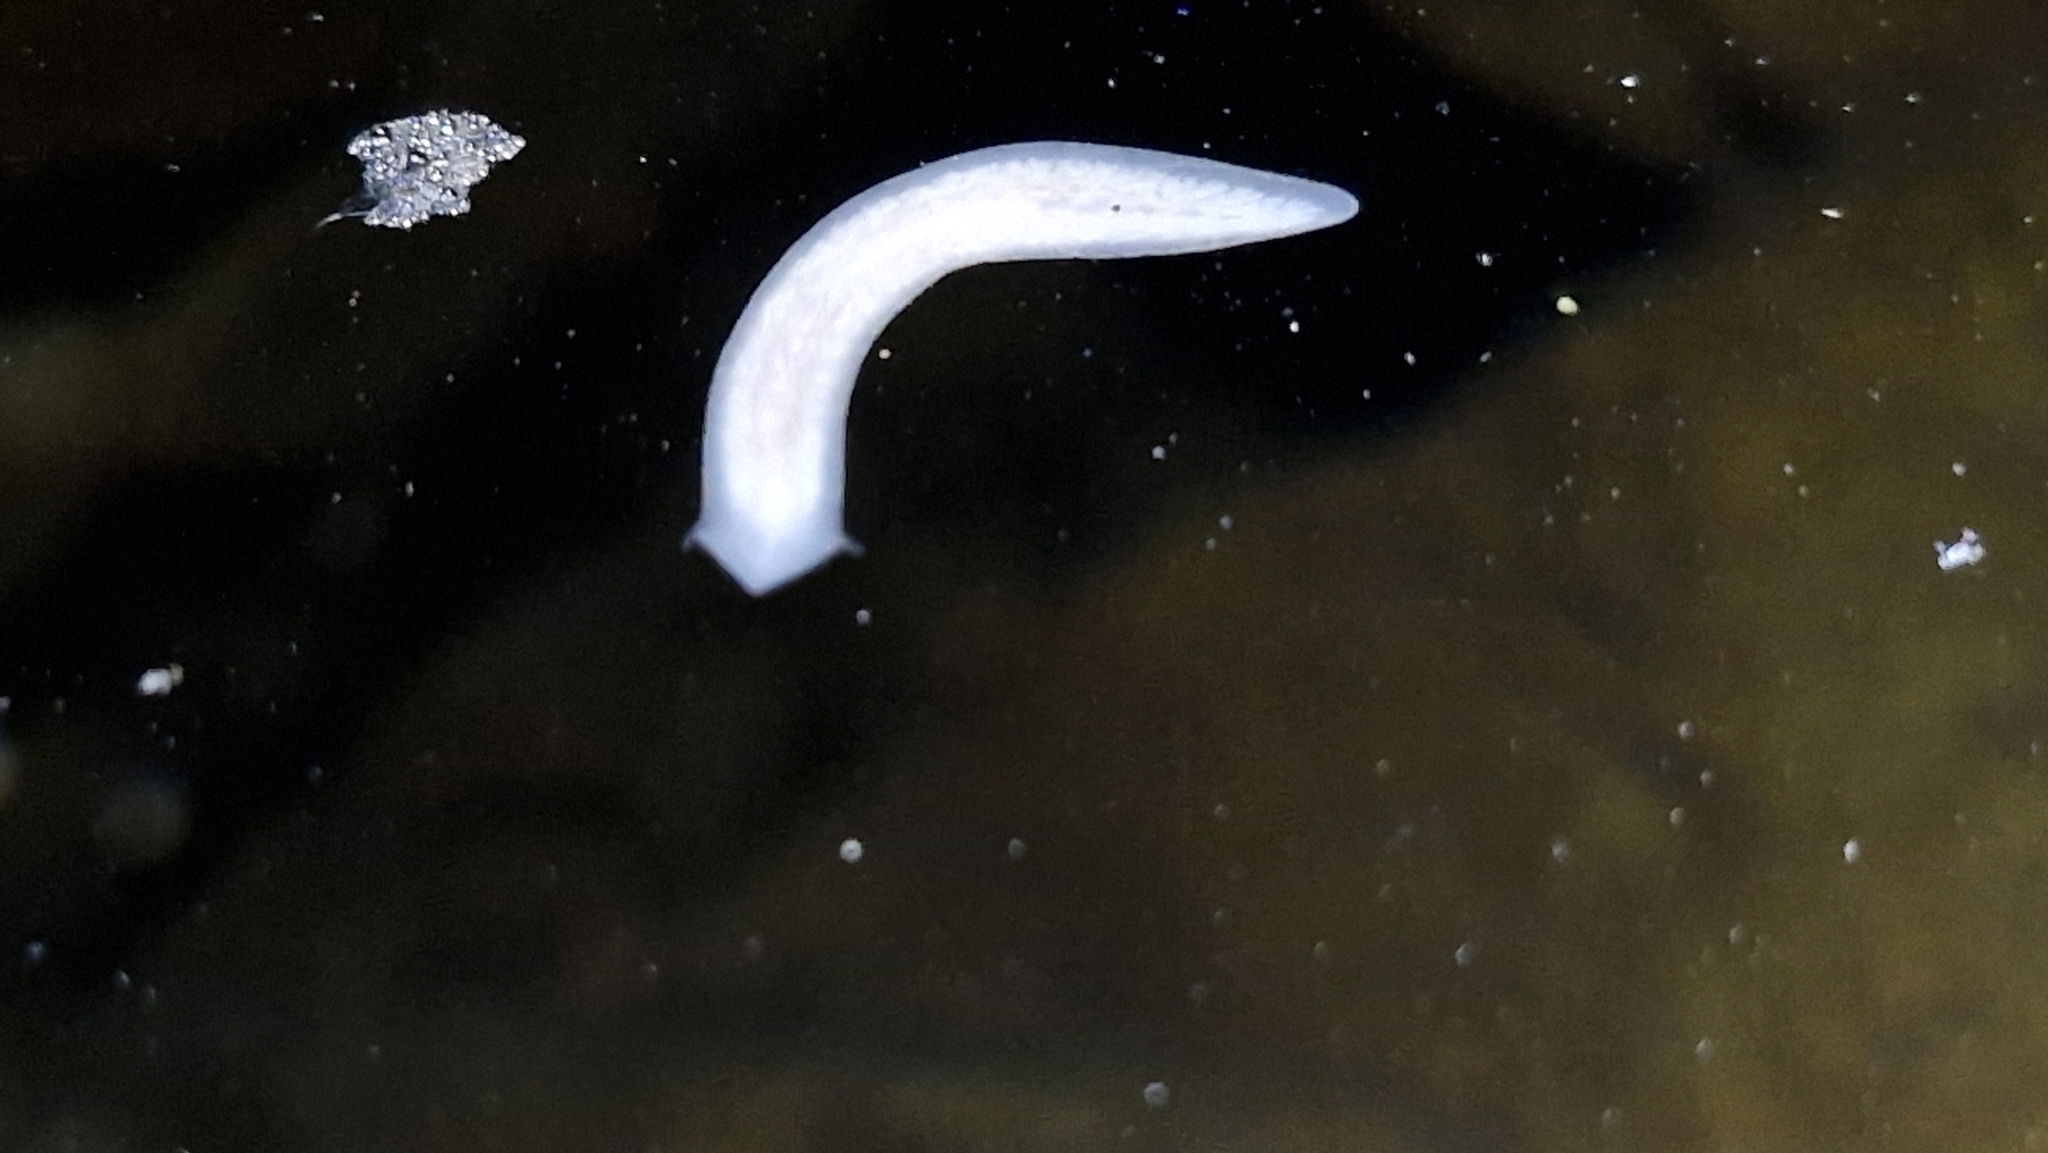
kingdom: Animalia
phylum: Platyhelminthes
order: Tricladida
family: Dugesiidae
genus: Neppia
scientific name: Neppia montana
